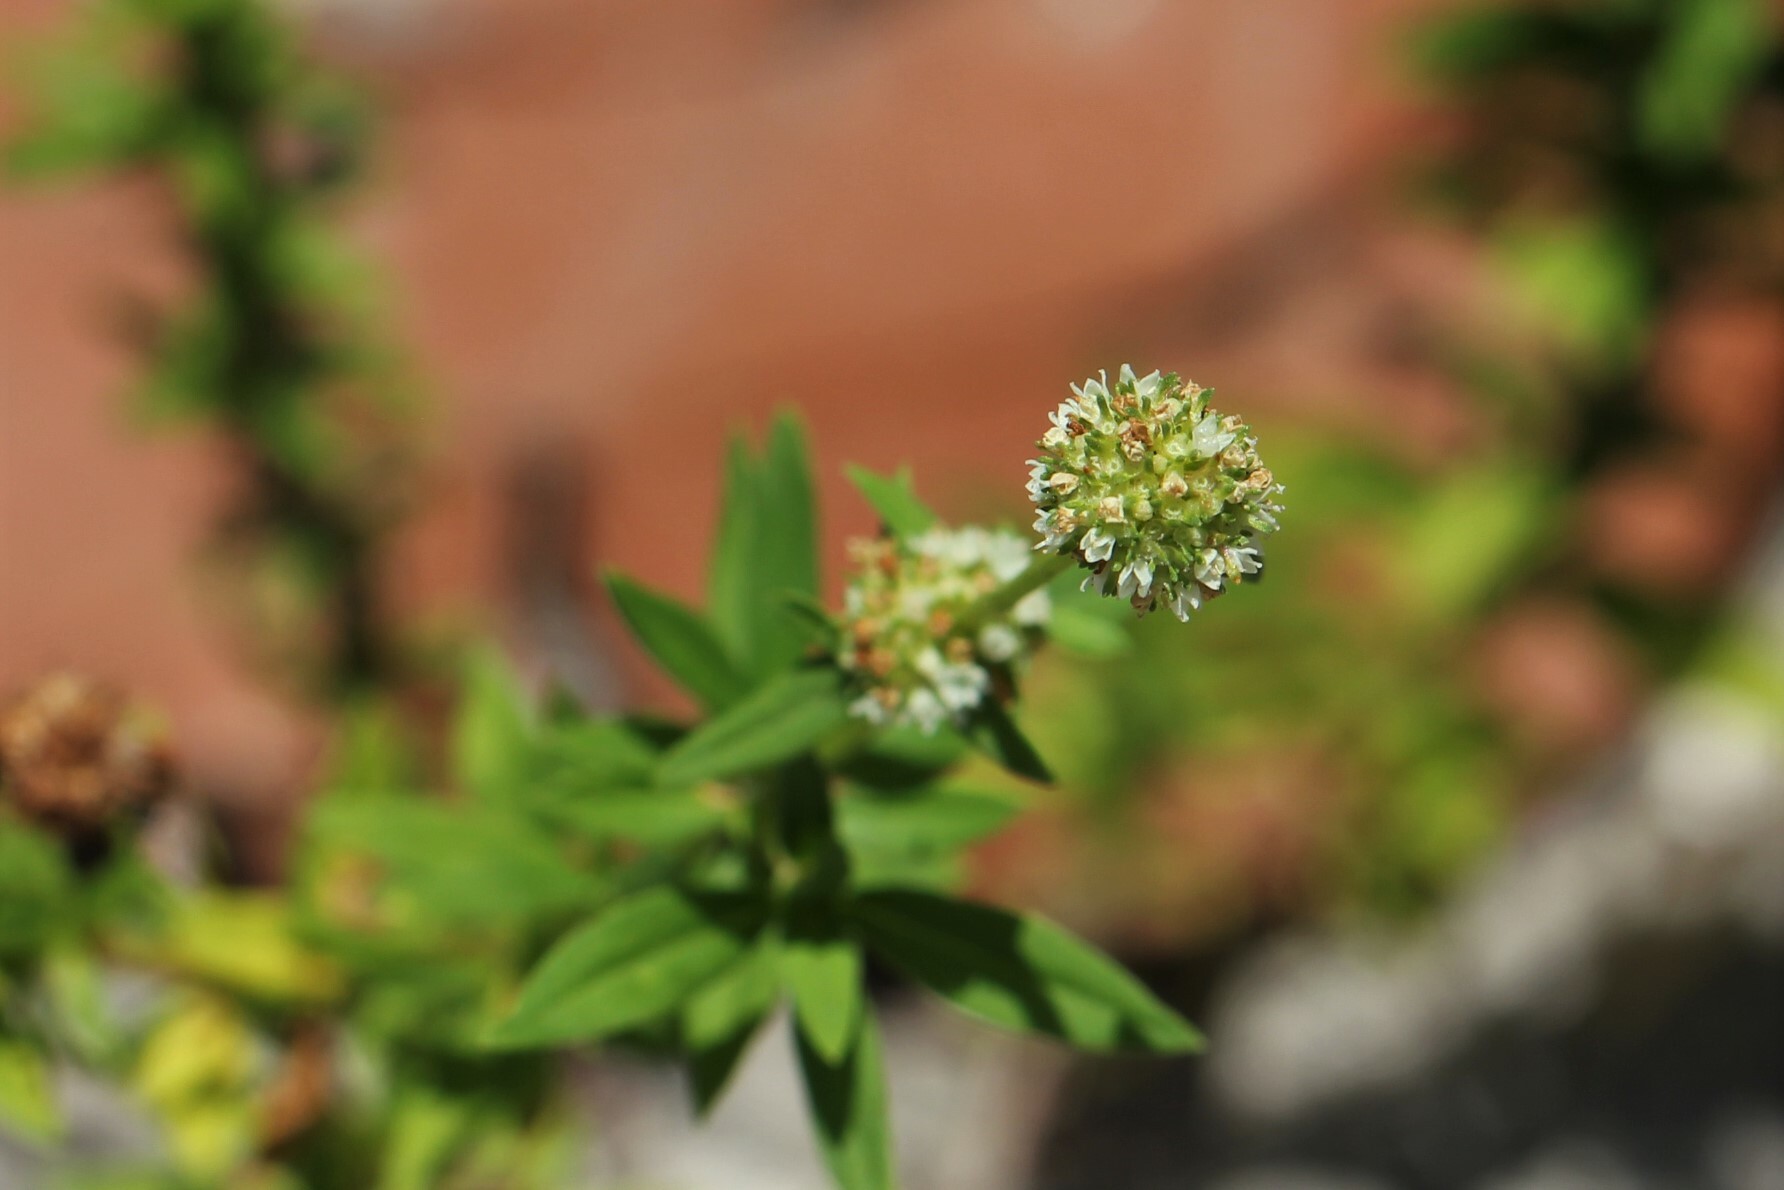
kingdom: Plantae
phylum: Tracheophyta
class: Magnoliopsida
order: Gentianales
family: Rubiaceae
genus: Spermacoce
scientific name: Spermacoce verticillata
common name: Shrubby false buttonweed
